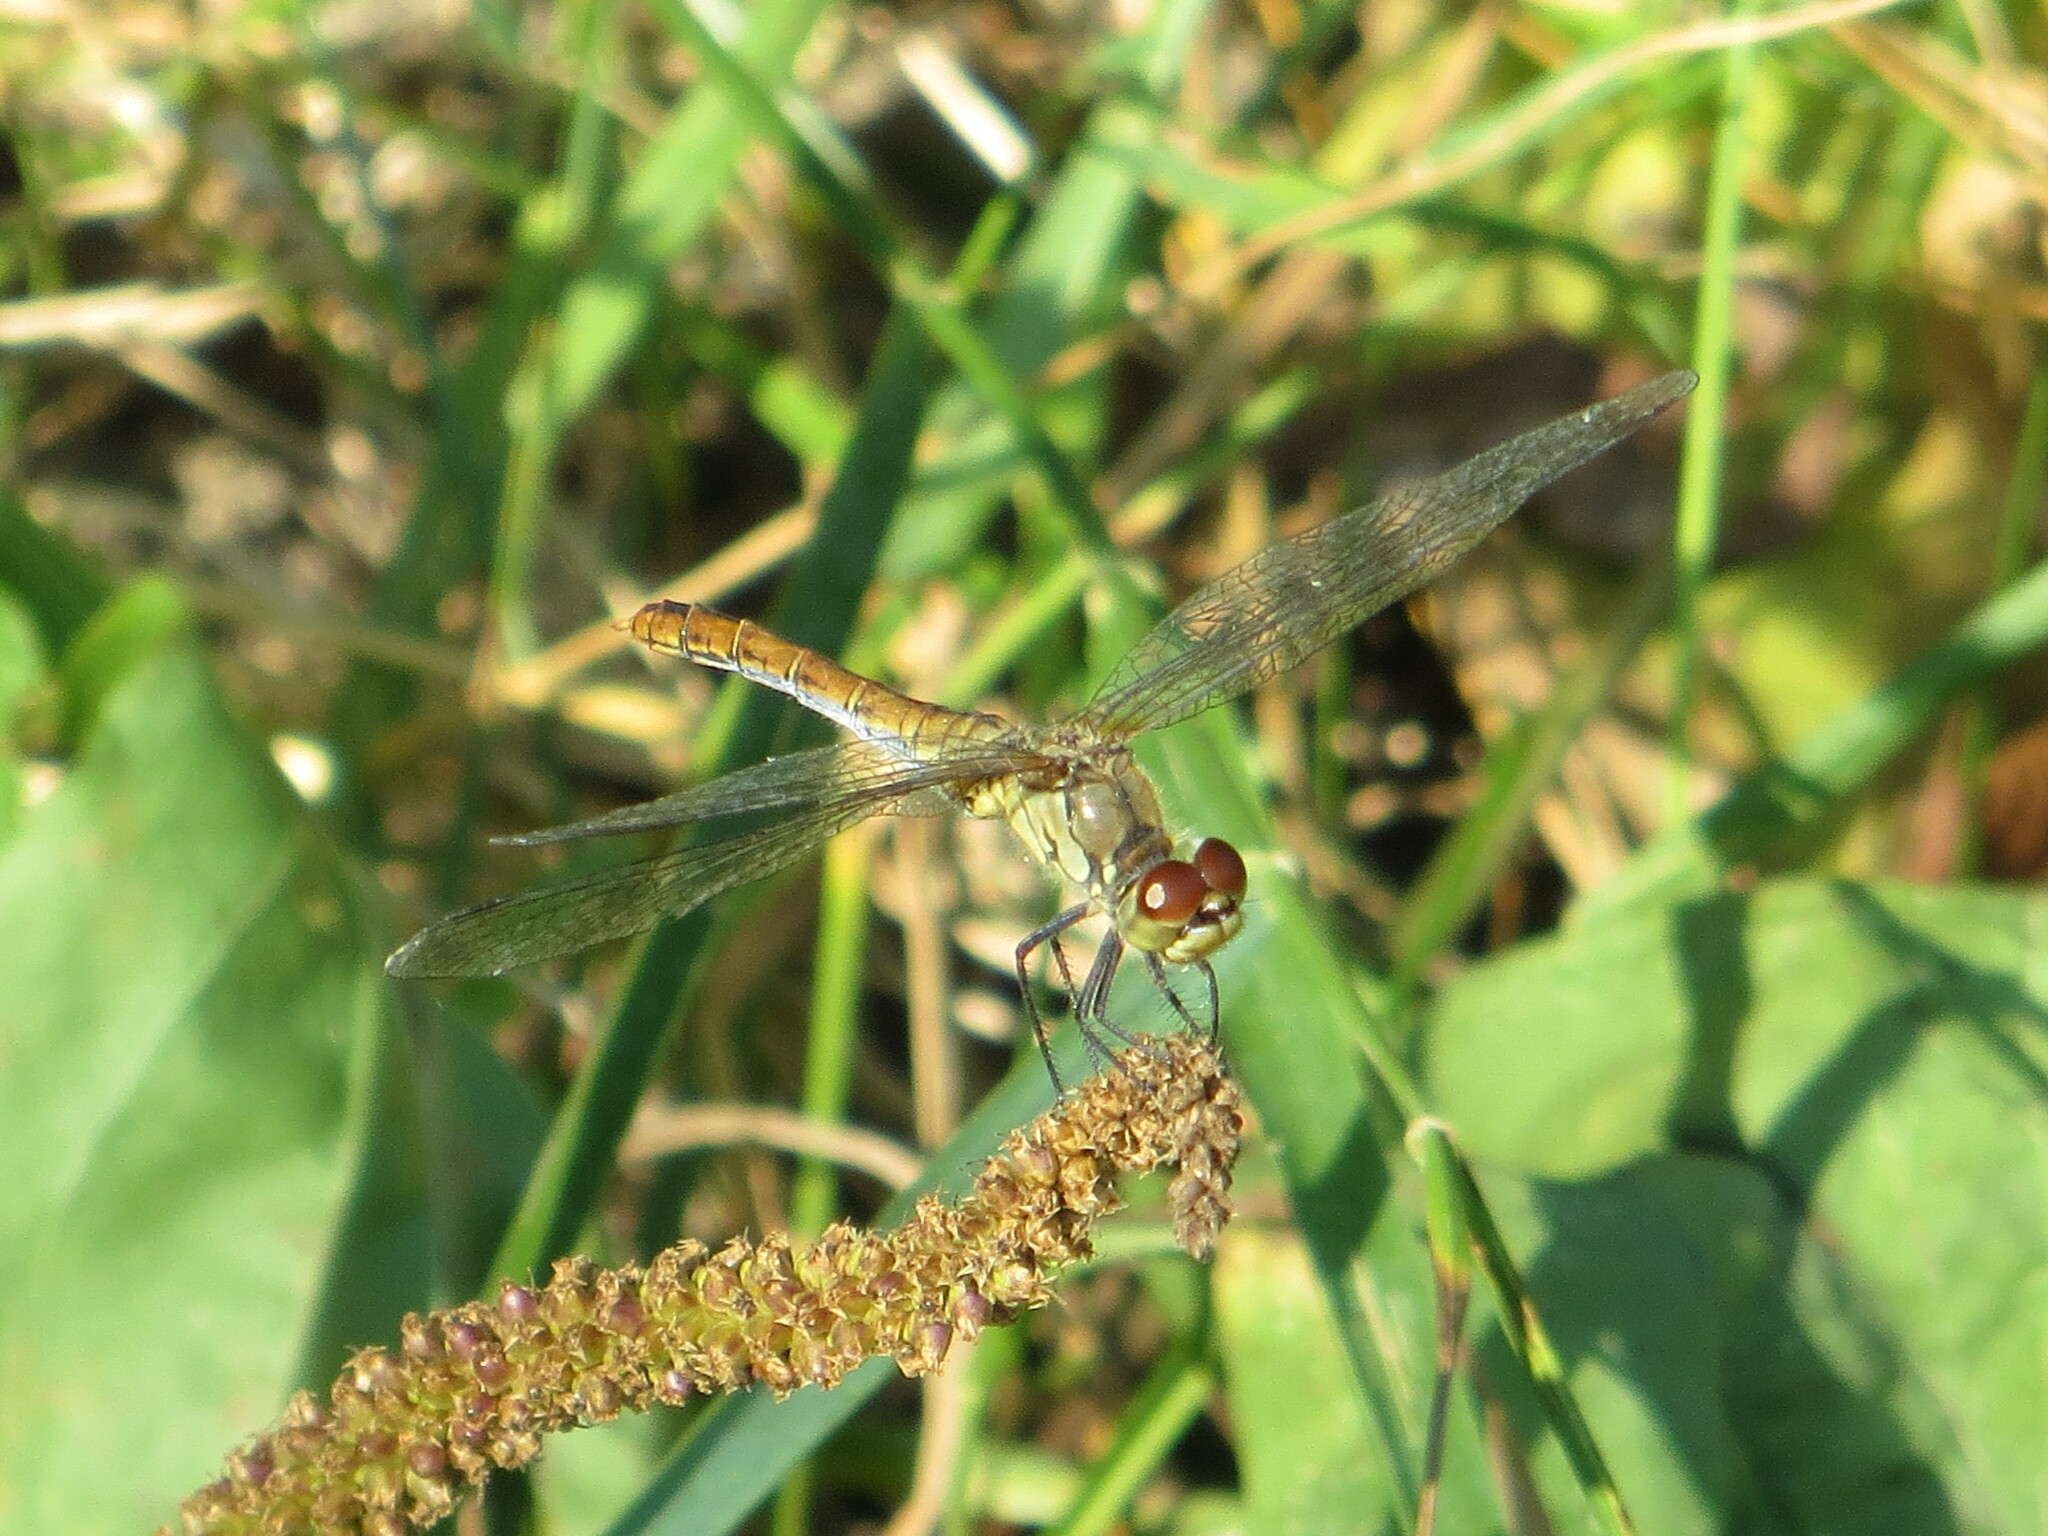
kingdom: Animalia
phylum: Arthropoda
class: Insecta
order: Odonata
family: Libellulidae
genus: Sympetrum
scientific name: Sympetrum sanguineum
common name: Ruddy darter
